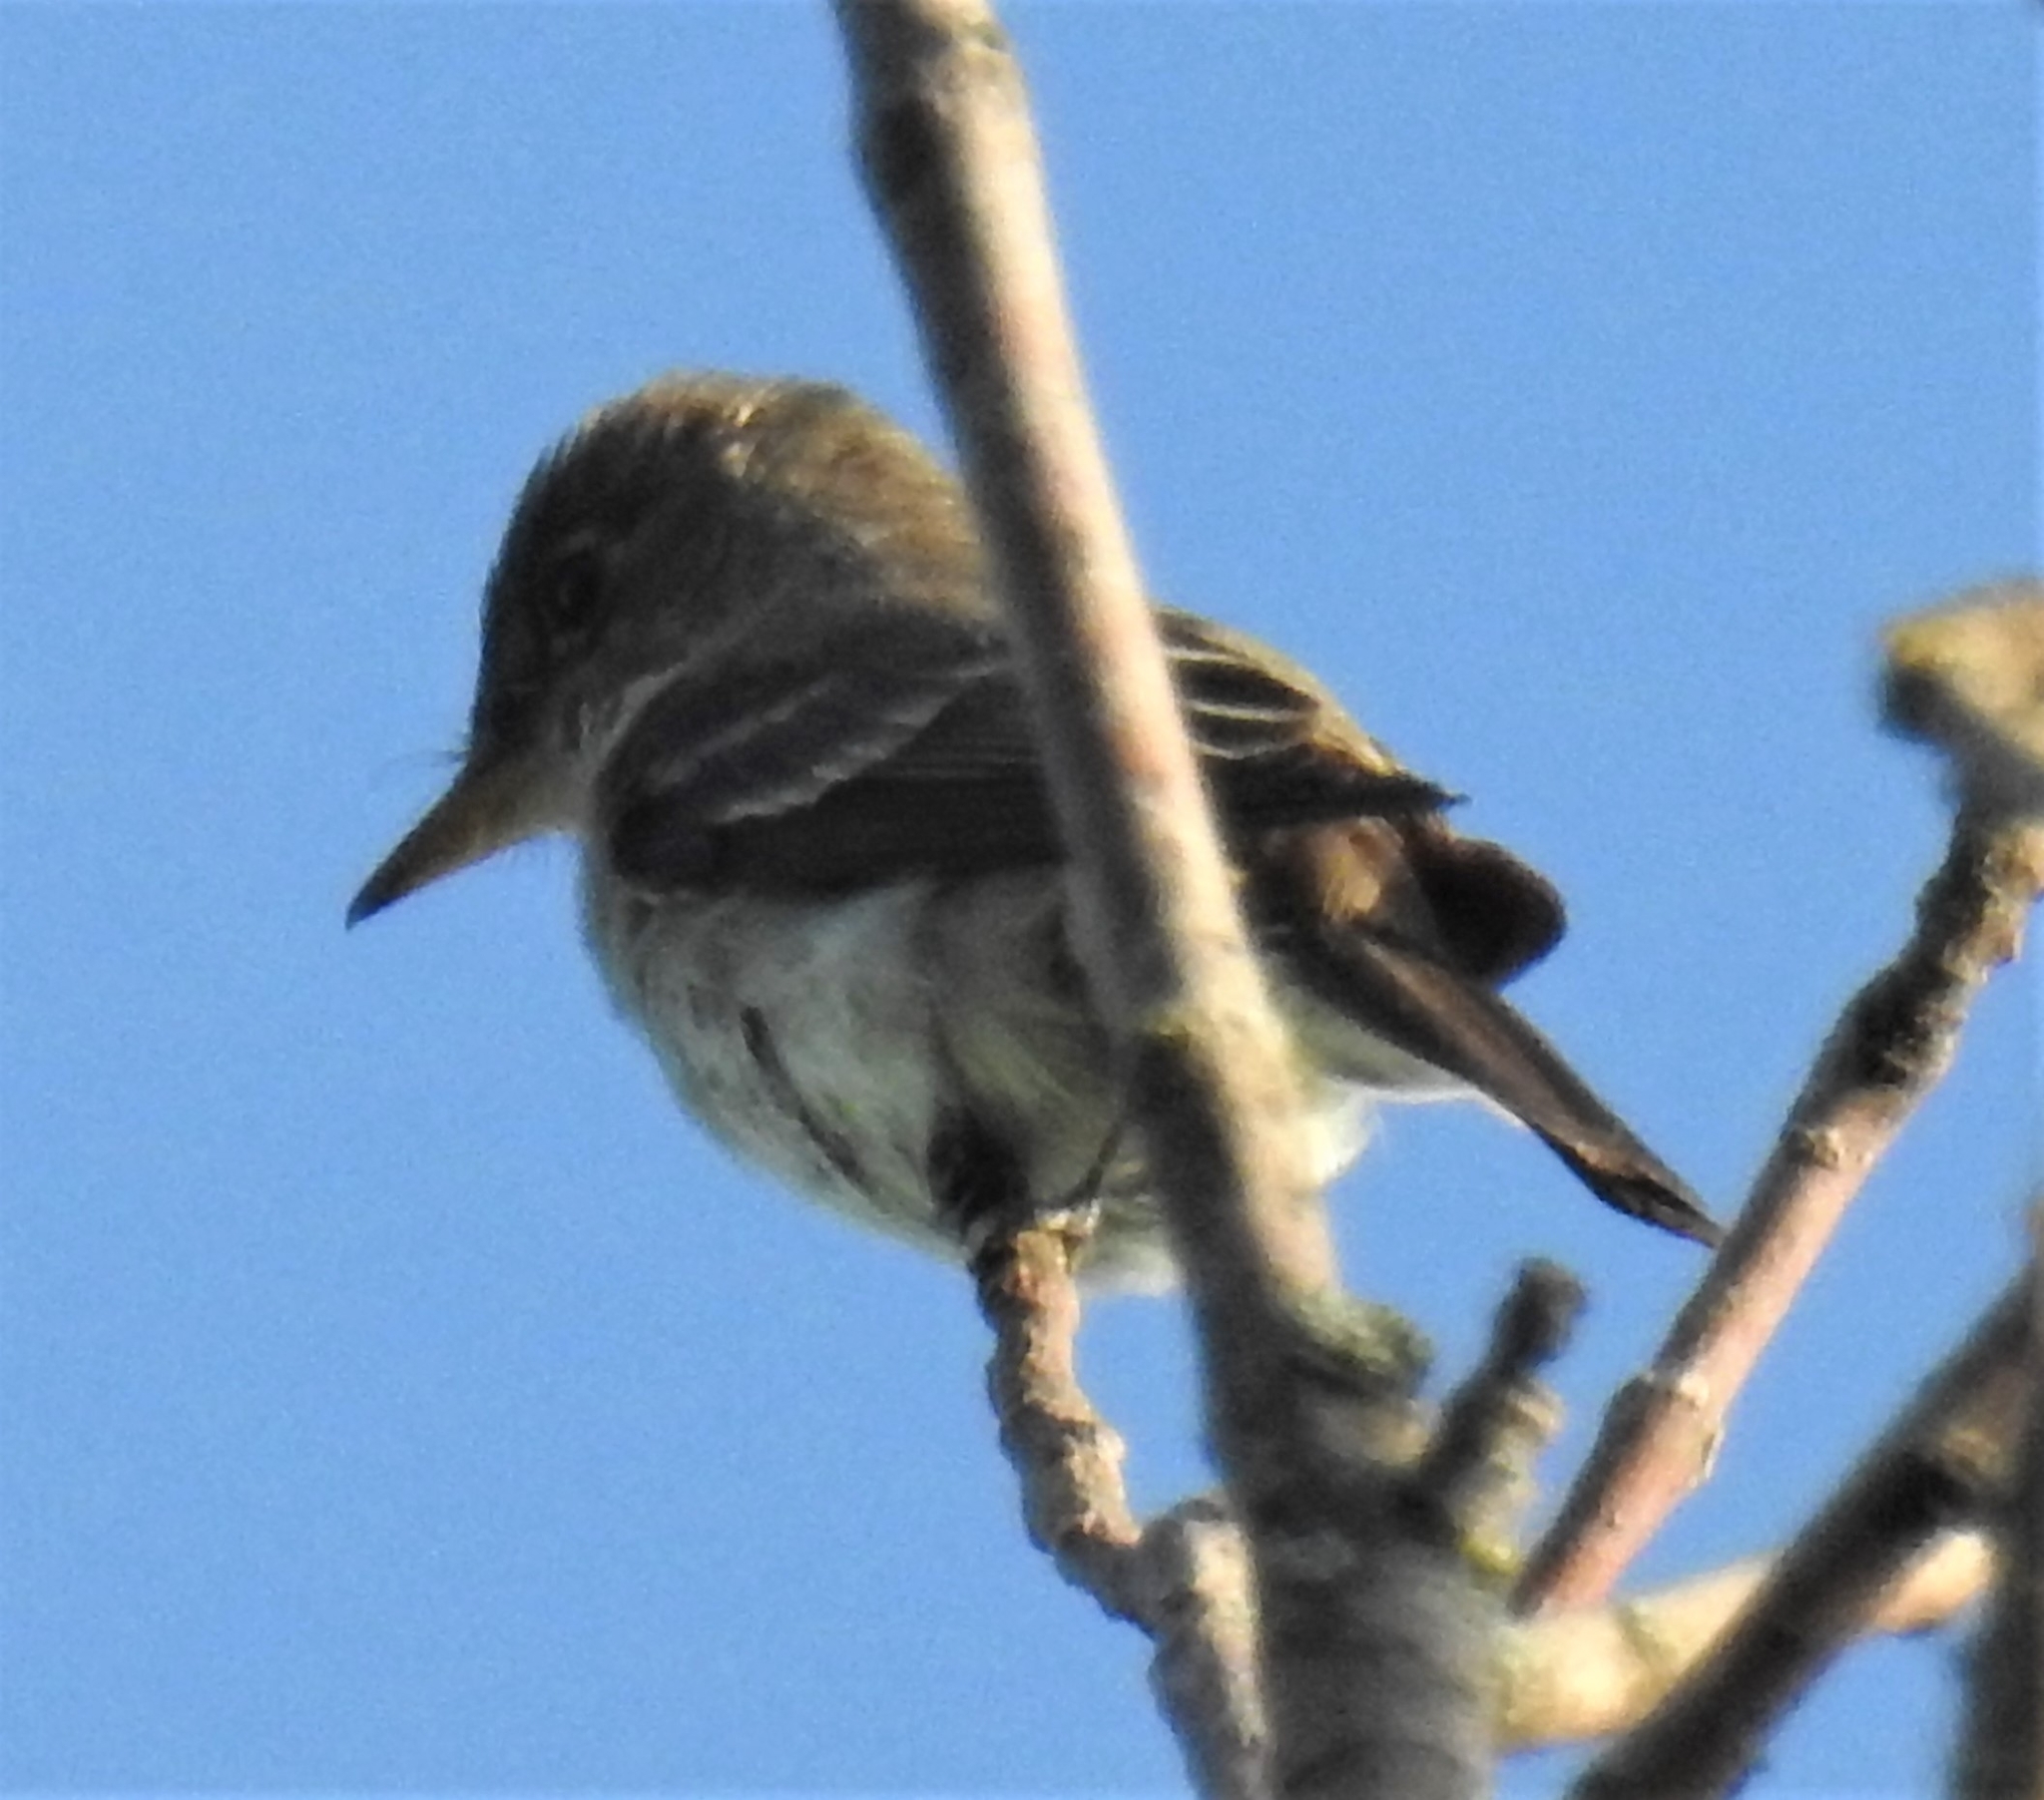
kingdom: Animalia
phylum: Chordata
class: Aves
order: Passeriformes
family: Tyrannidae
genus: Contopus
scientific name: Contopus virens
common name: Eastern wood-pewee
